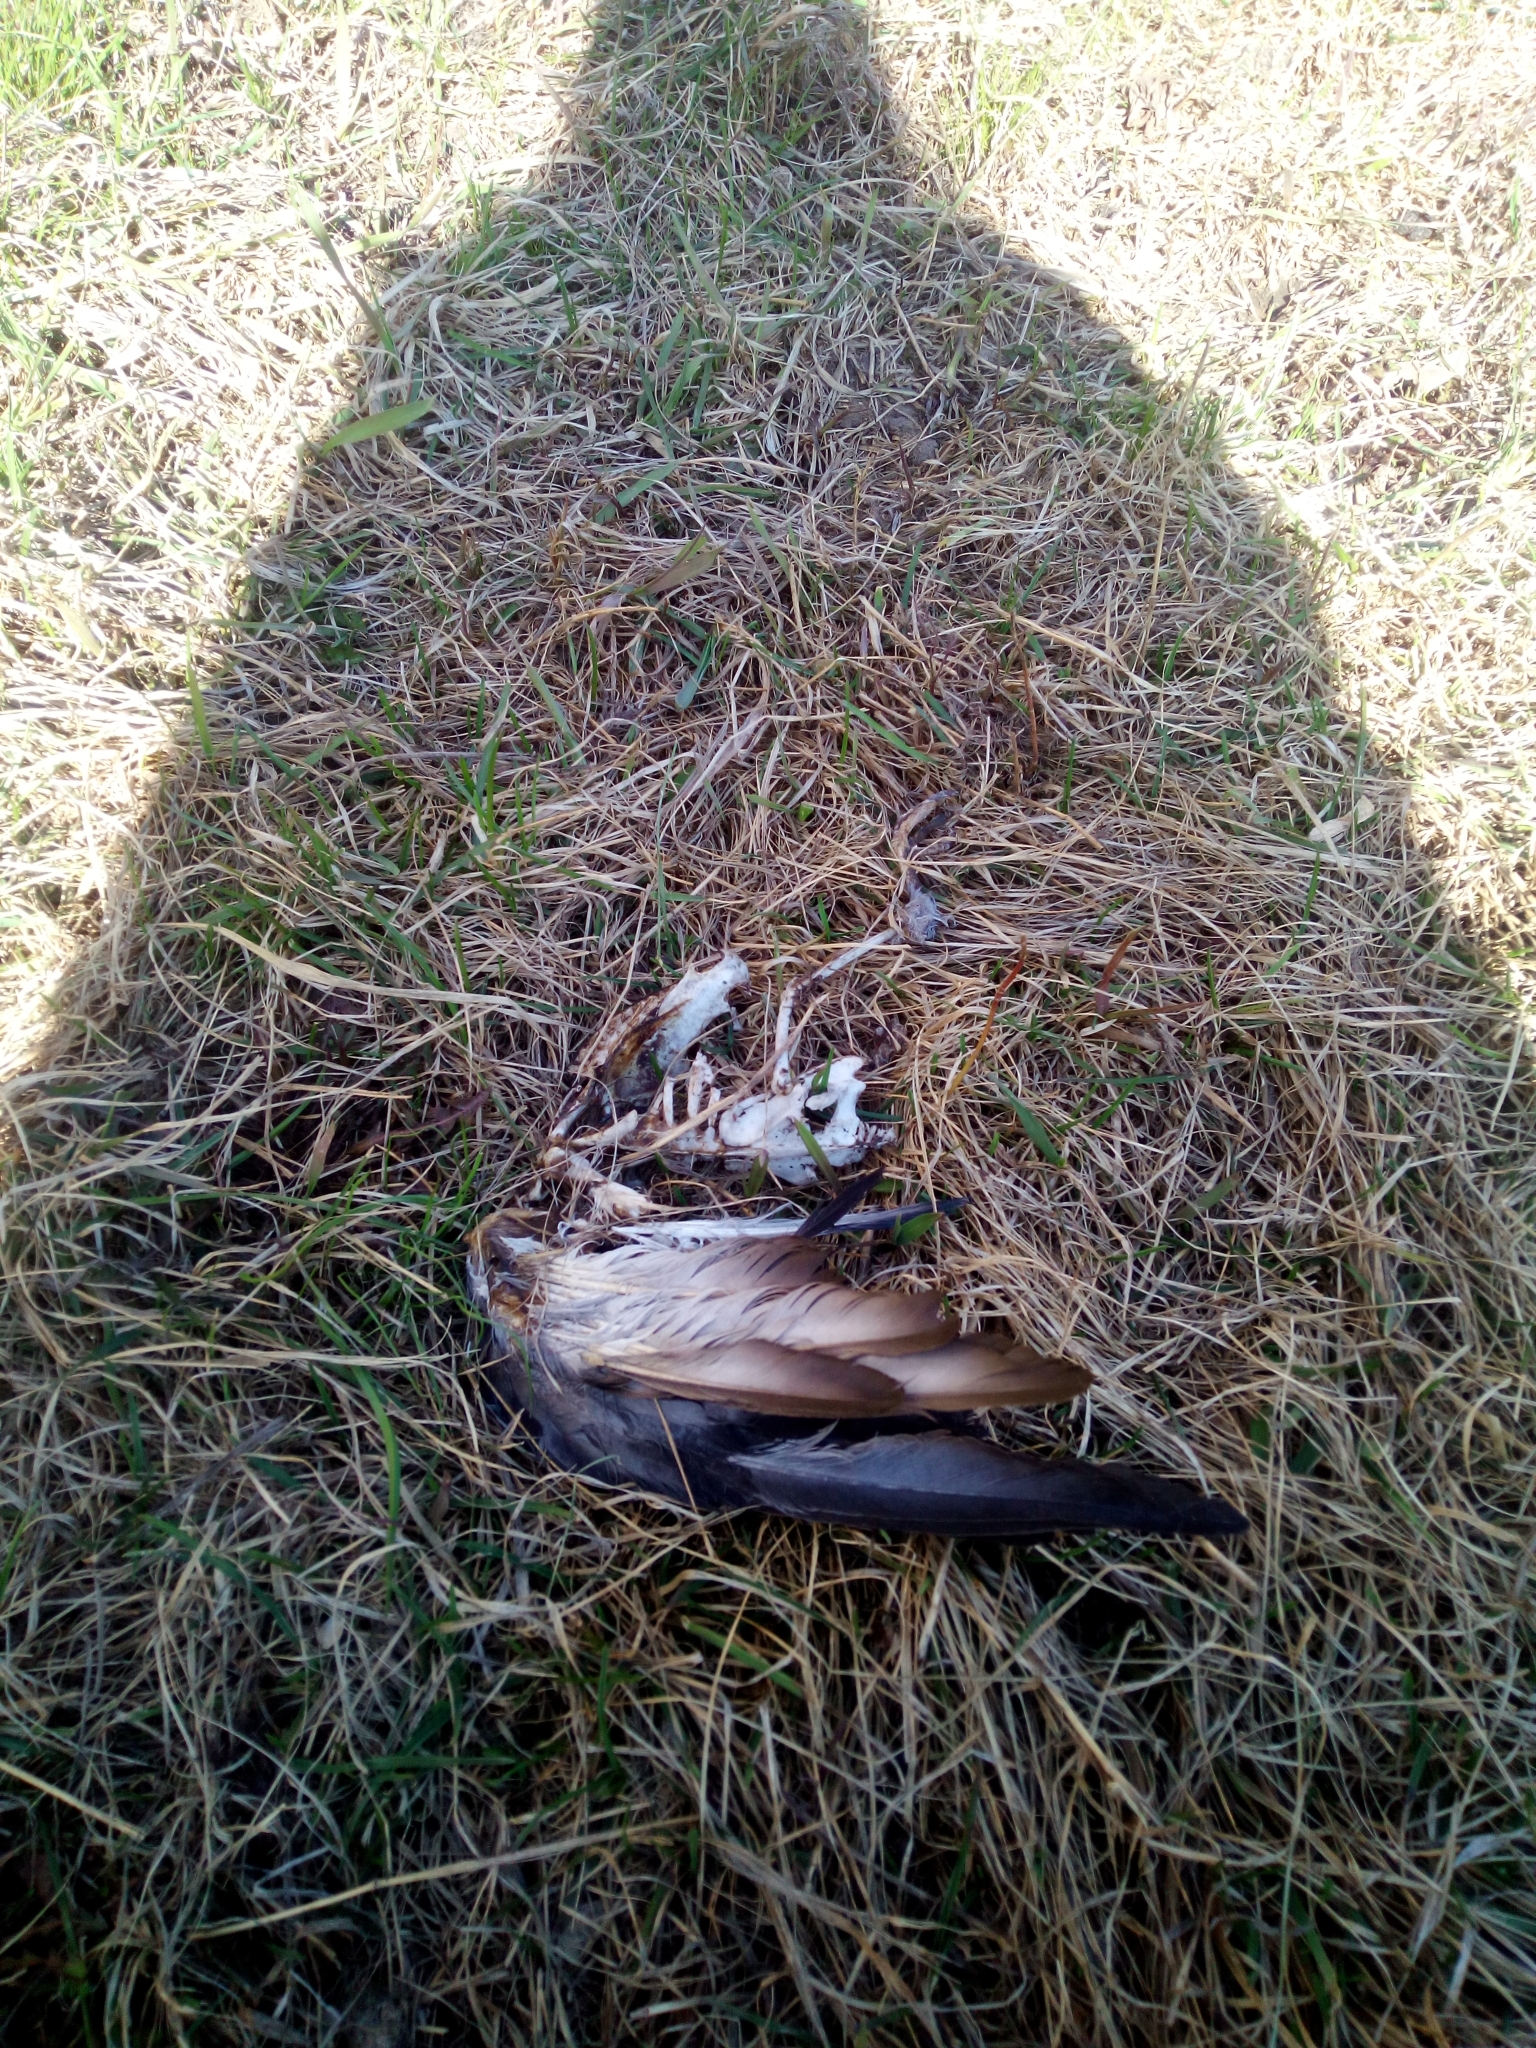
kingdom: Animalia
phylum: Chordata
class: Aves
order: Passeriformes
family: Corvidae
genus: Corvus
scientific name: Corvus cornix
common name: Hooded crow
